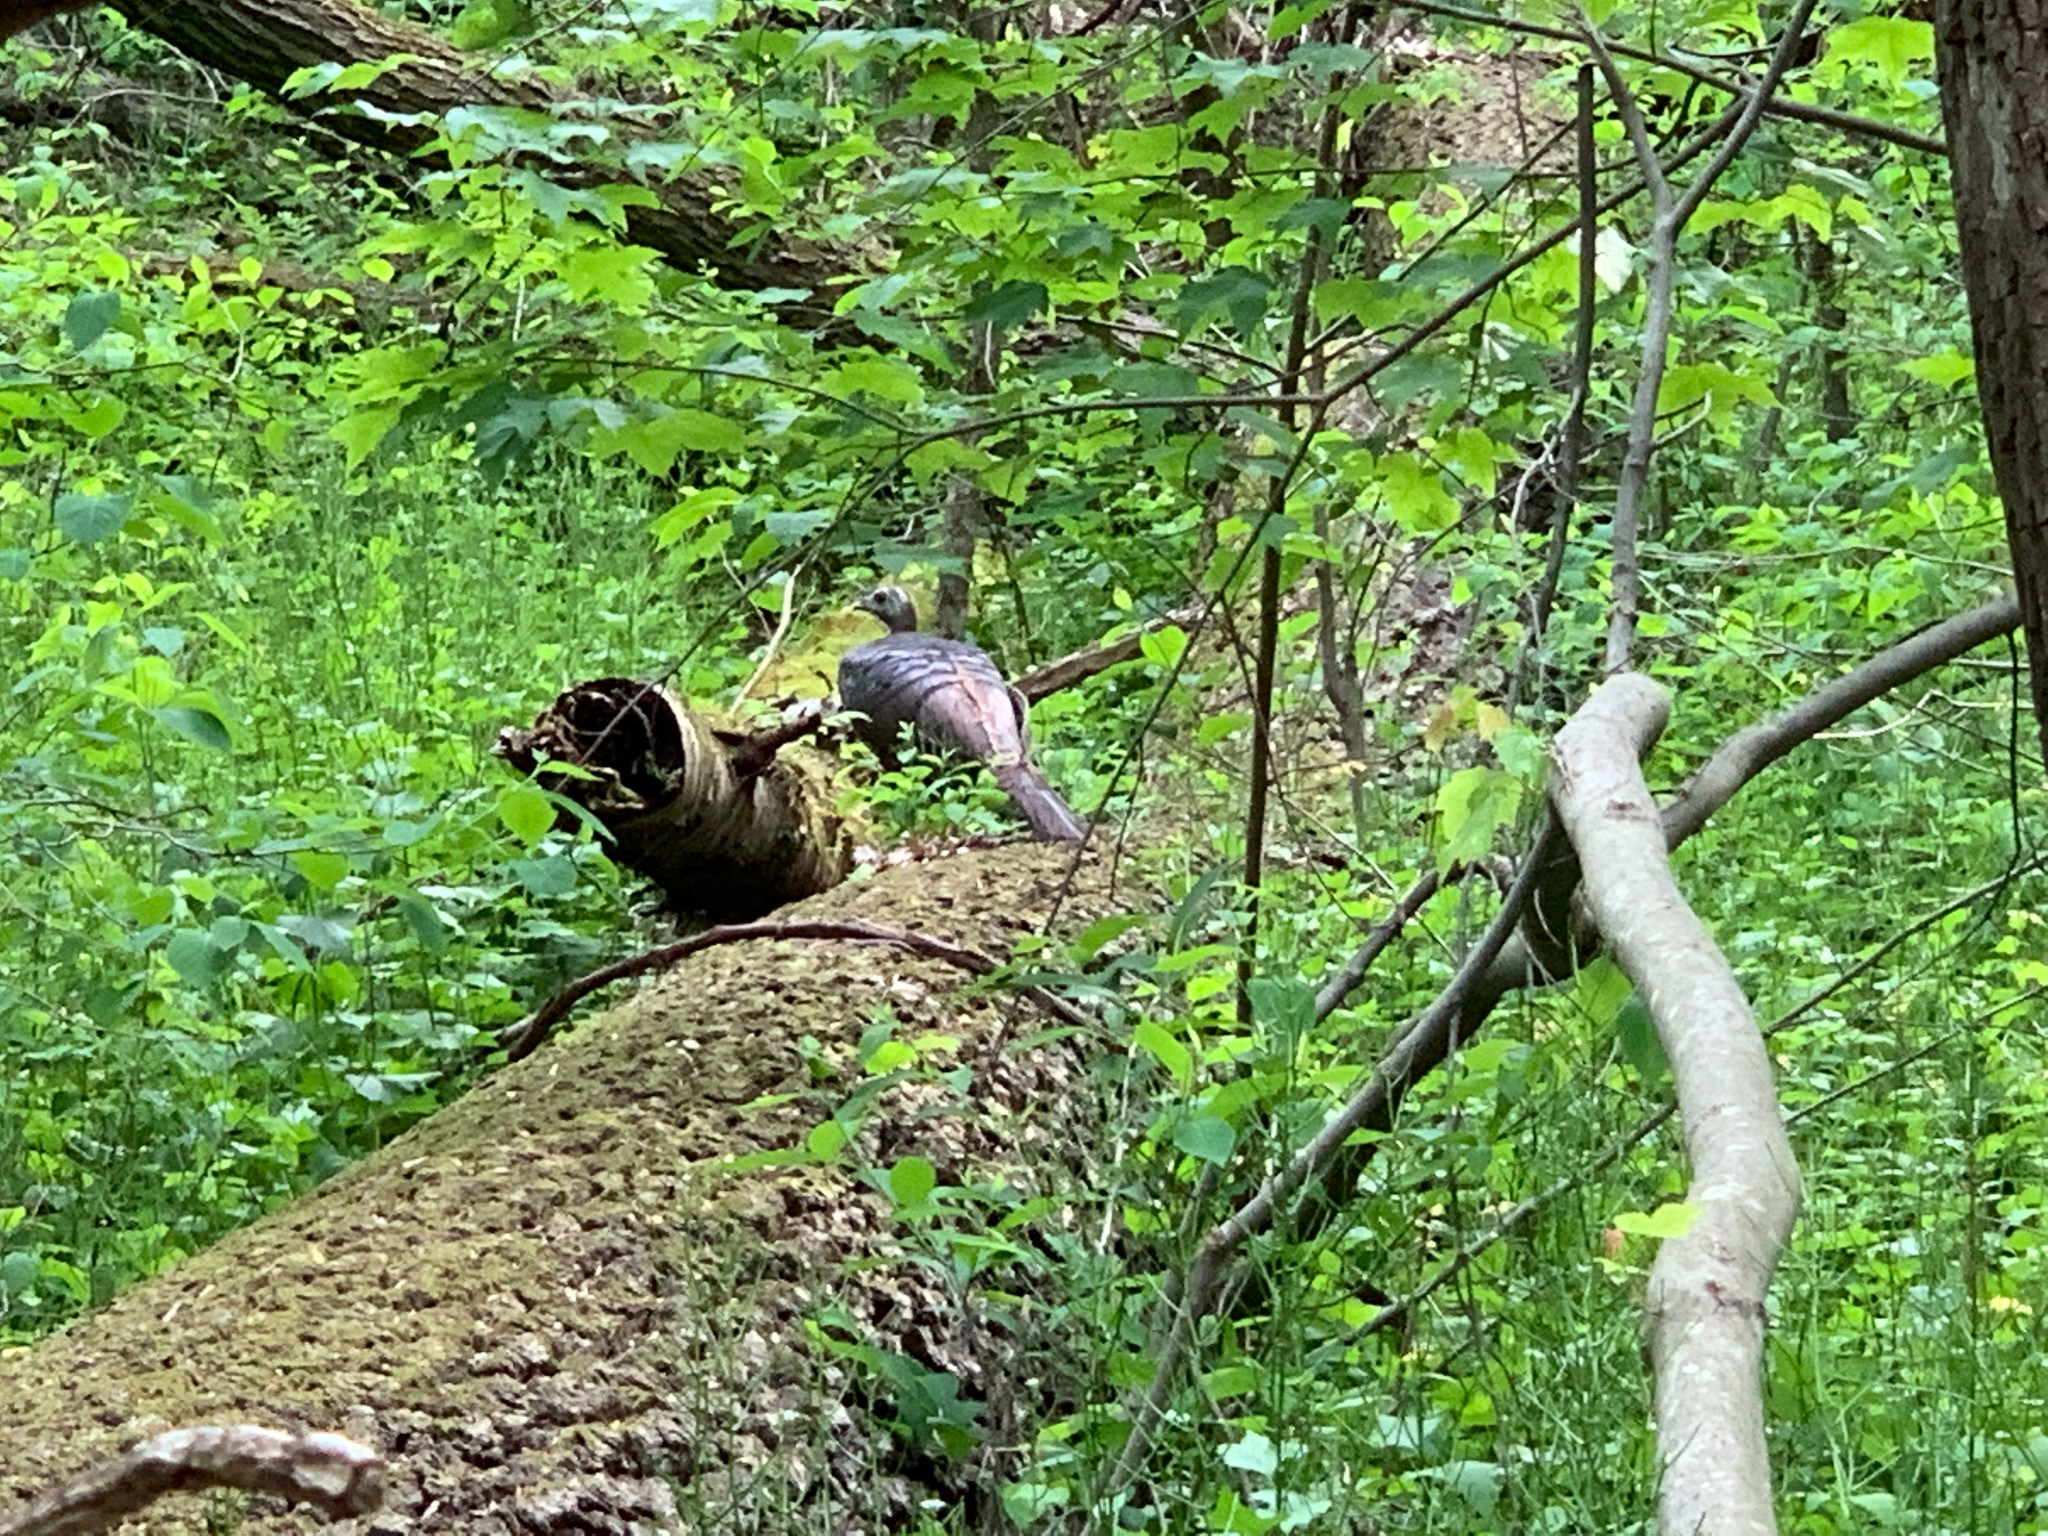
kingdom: Animalia
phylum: Chordata
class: Aves
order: Galliformes
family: Phasianidae
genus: Meleagris
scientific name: Meleagris gallopavo
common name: Wild turkey
